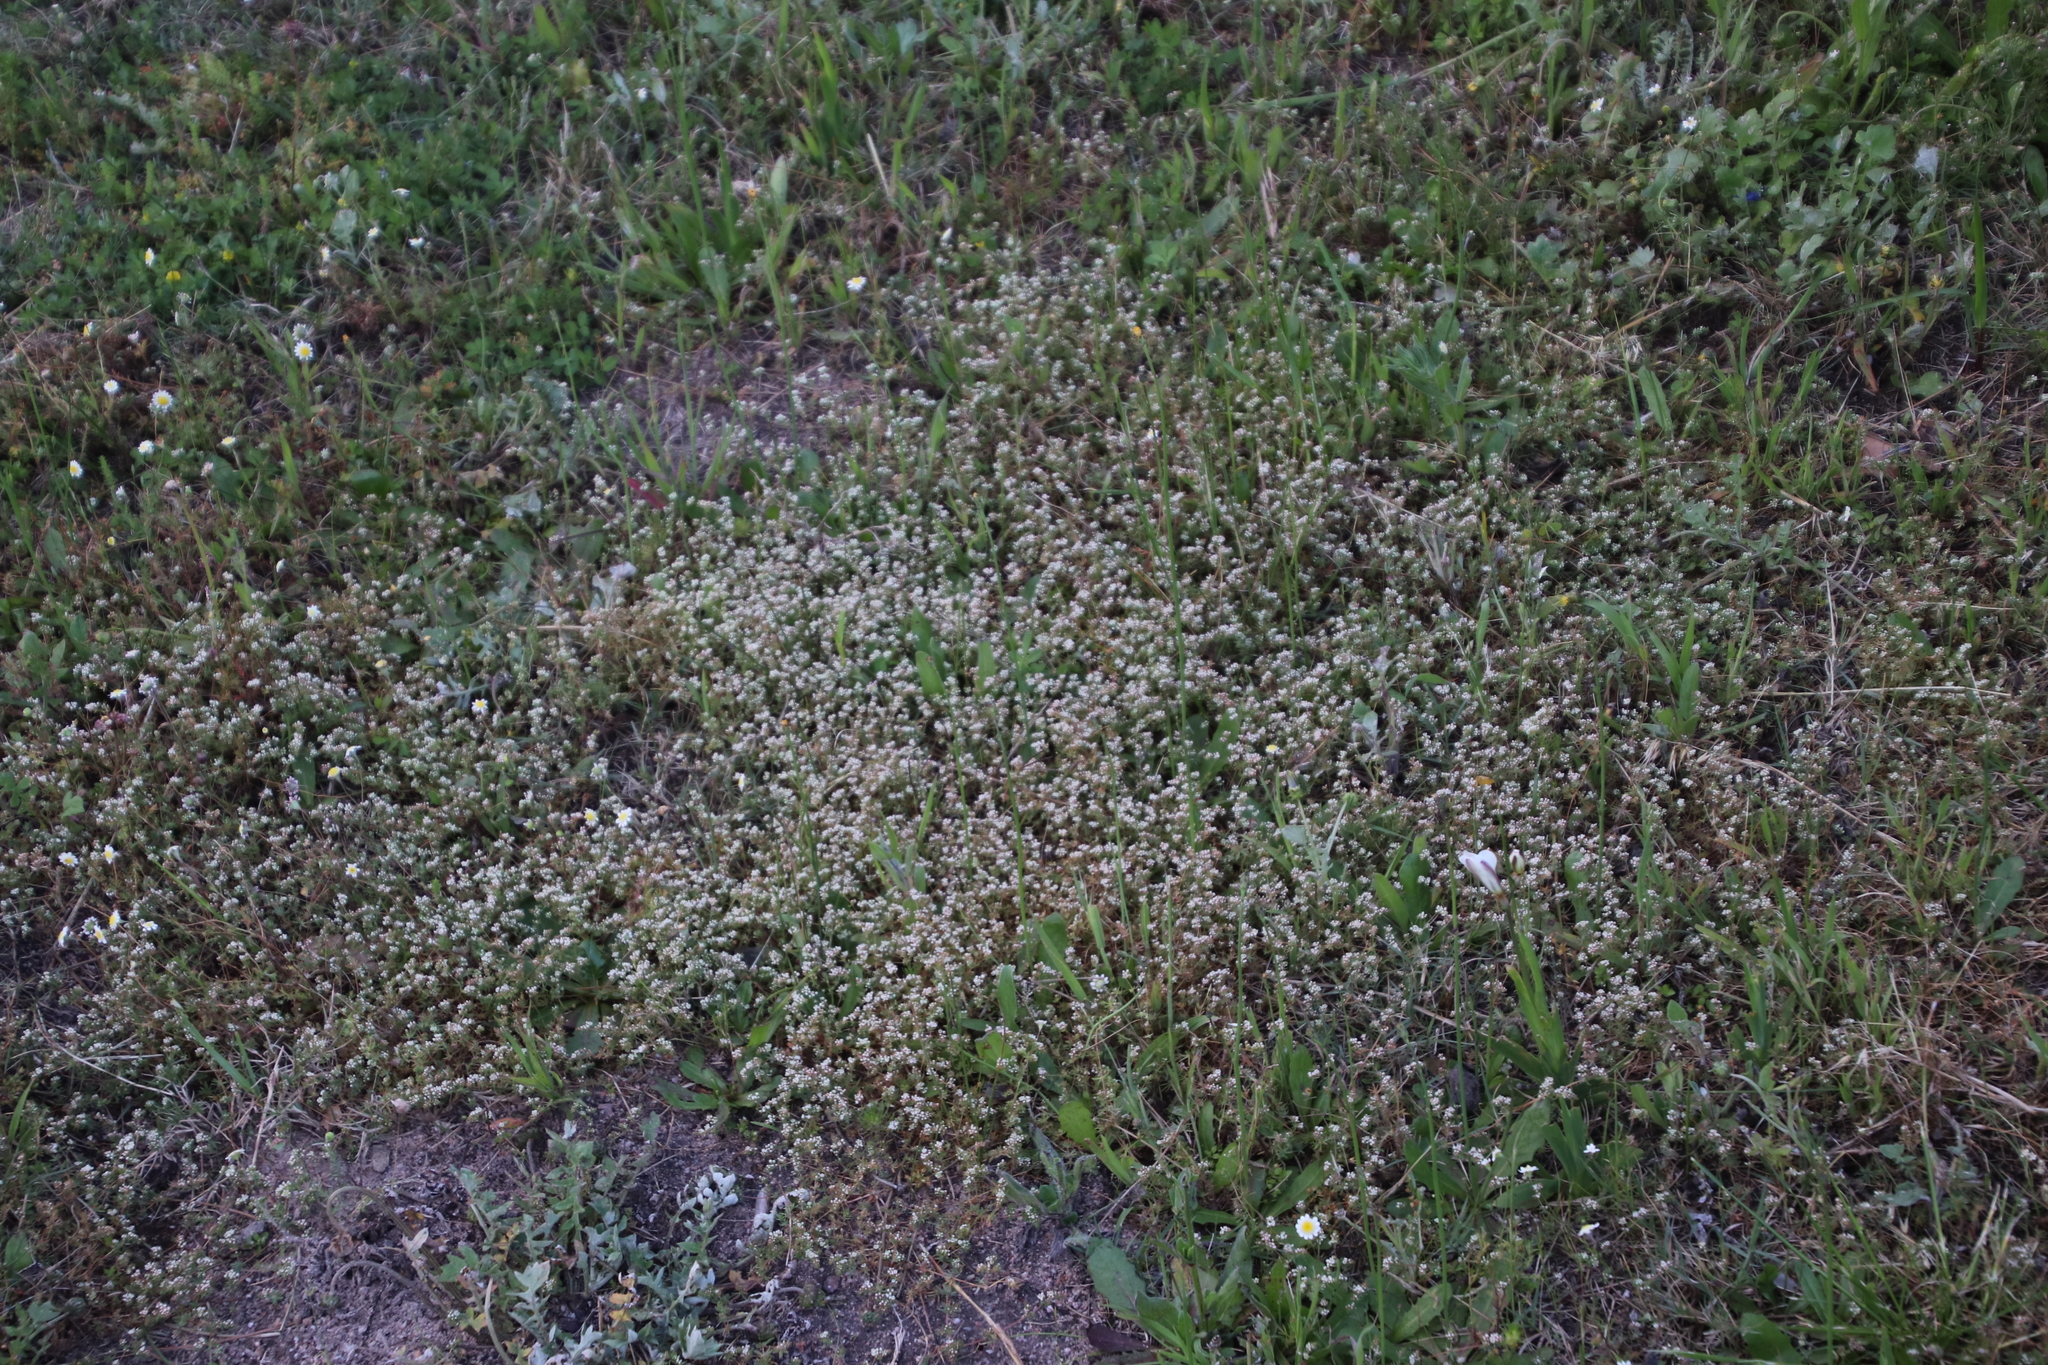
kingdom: Plantae
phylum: Tracheophyta
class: Magnoliopsida
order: Caryophyllales
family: Molluginaceae
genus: Adenogramma
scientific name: Adenogramma glomerata
